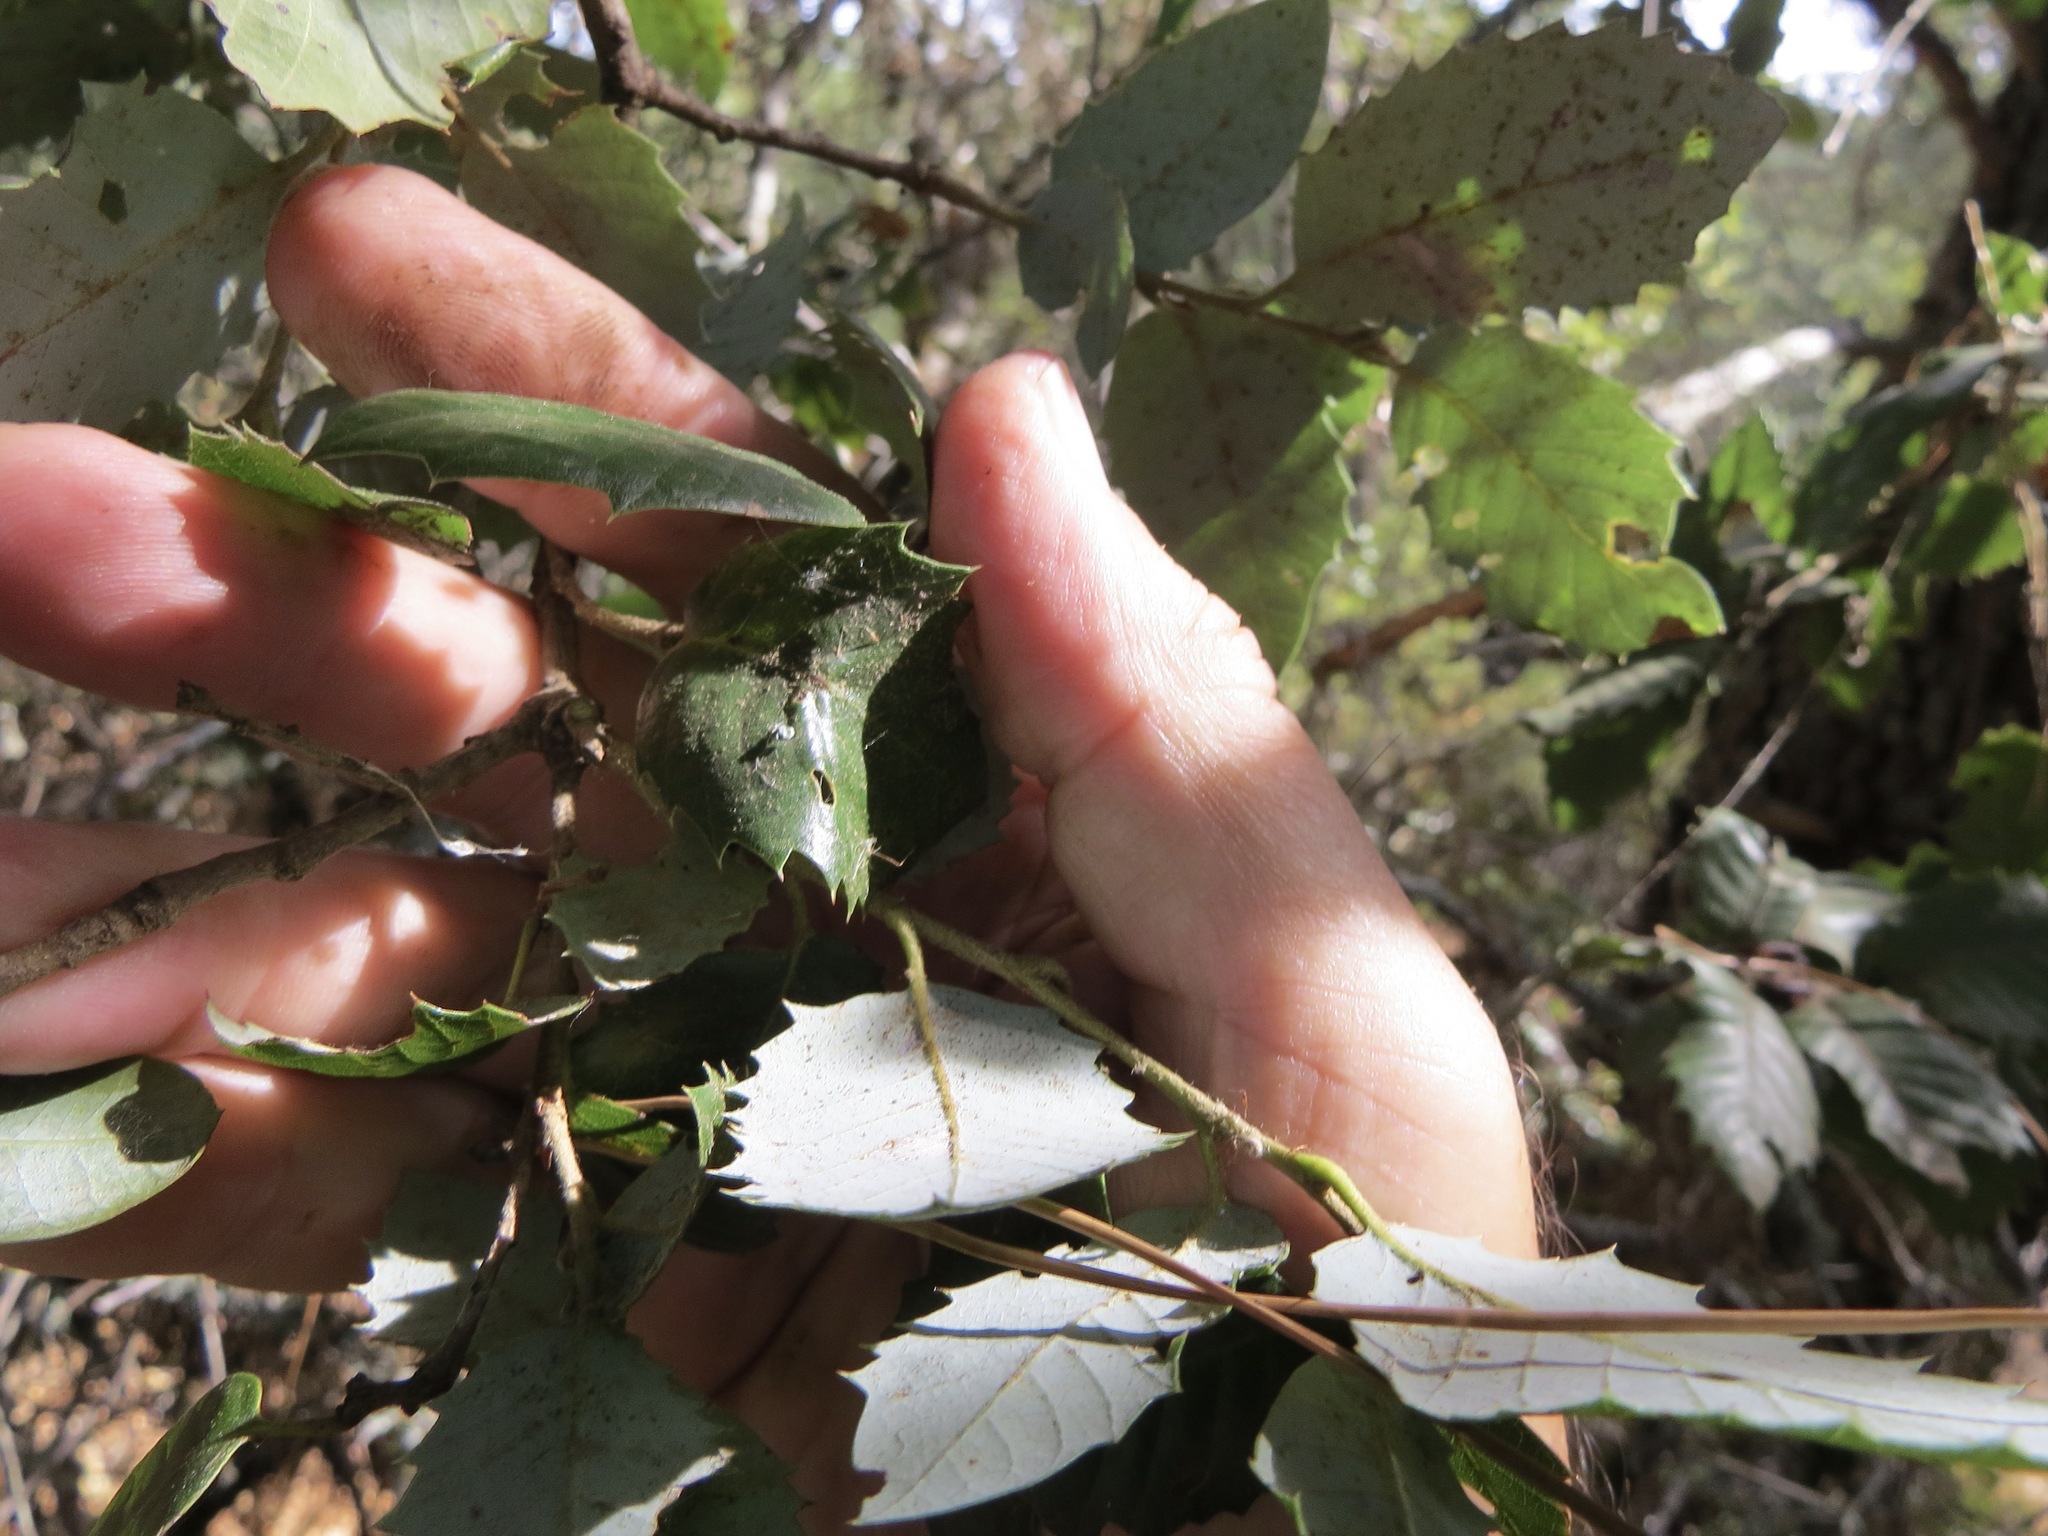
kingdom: Animalia
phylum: Arthropoda
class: Insecta
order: Hymenoptera
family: Cynipidae
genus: Disholandricus
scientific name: Disholandricus
